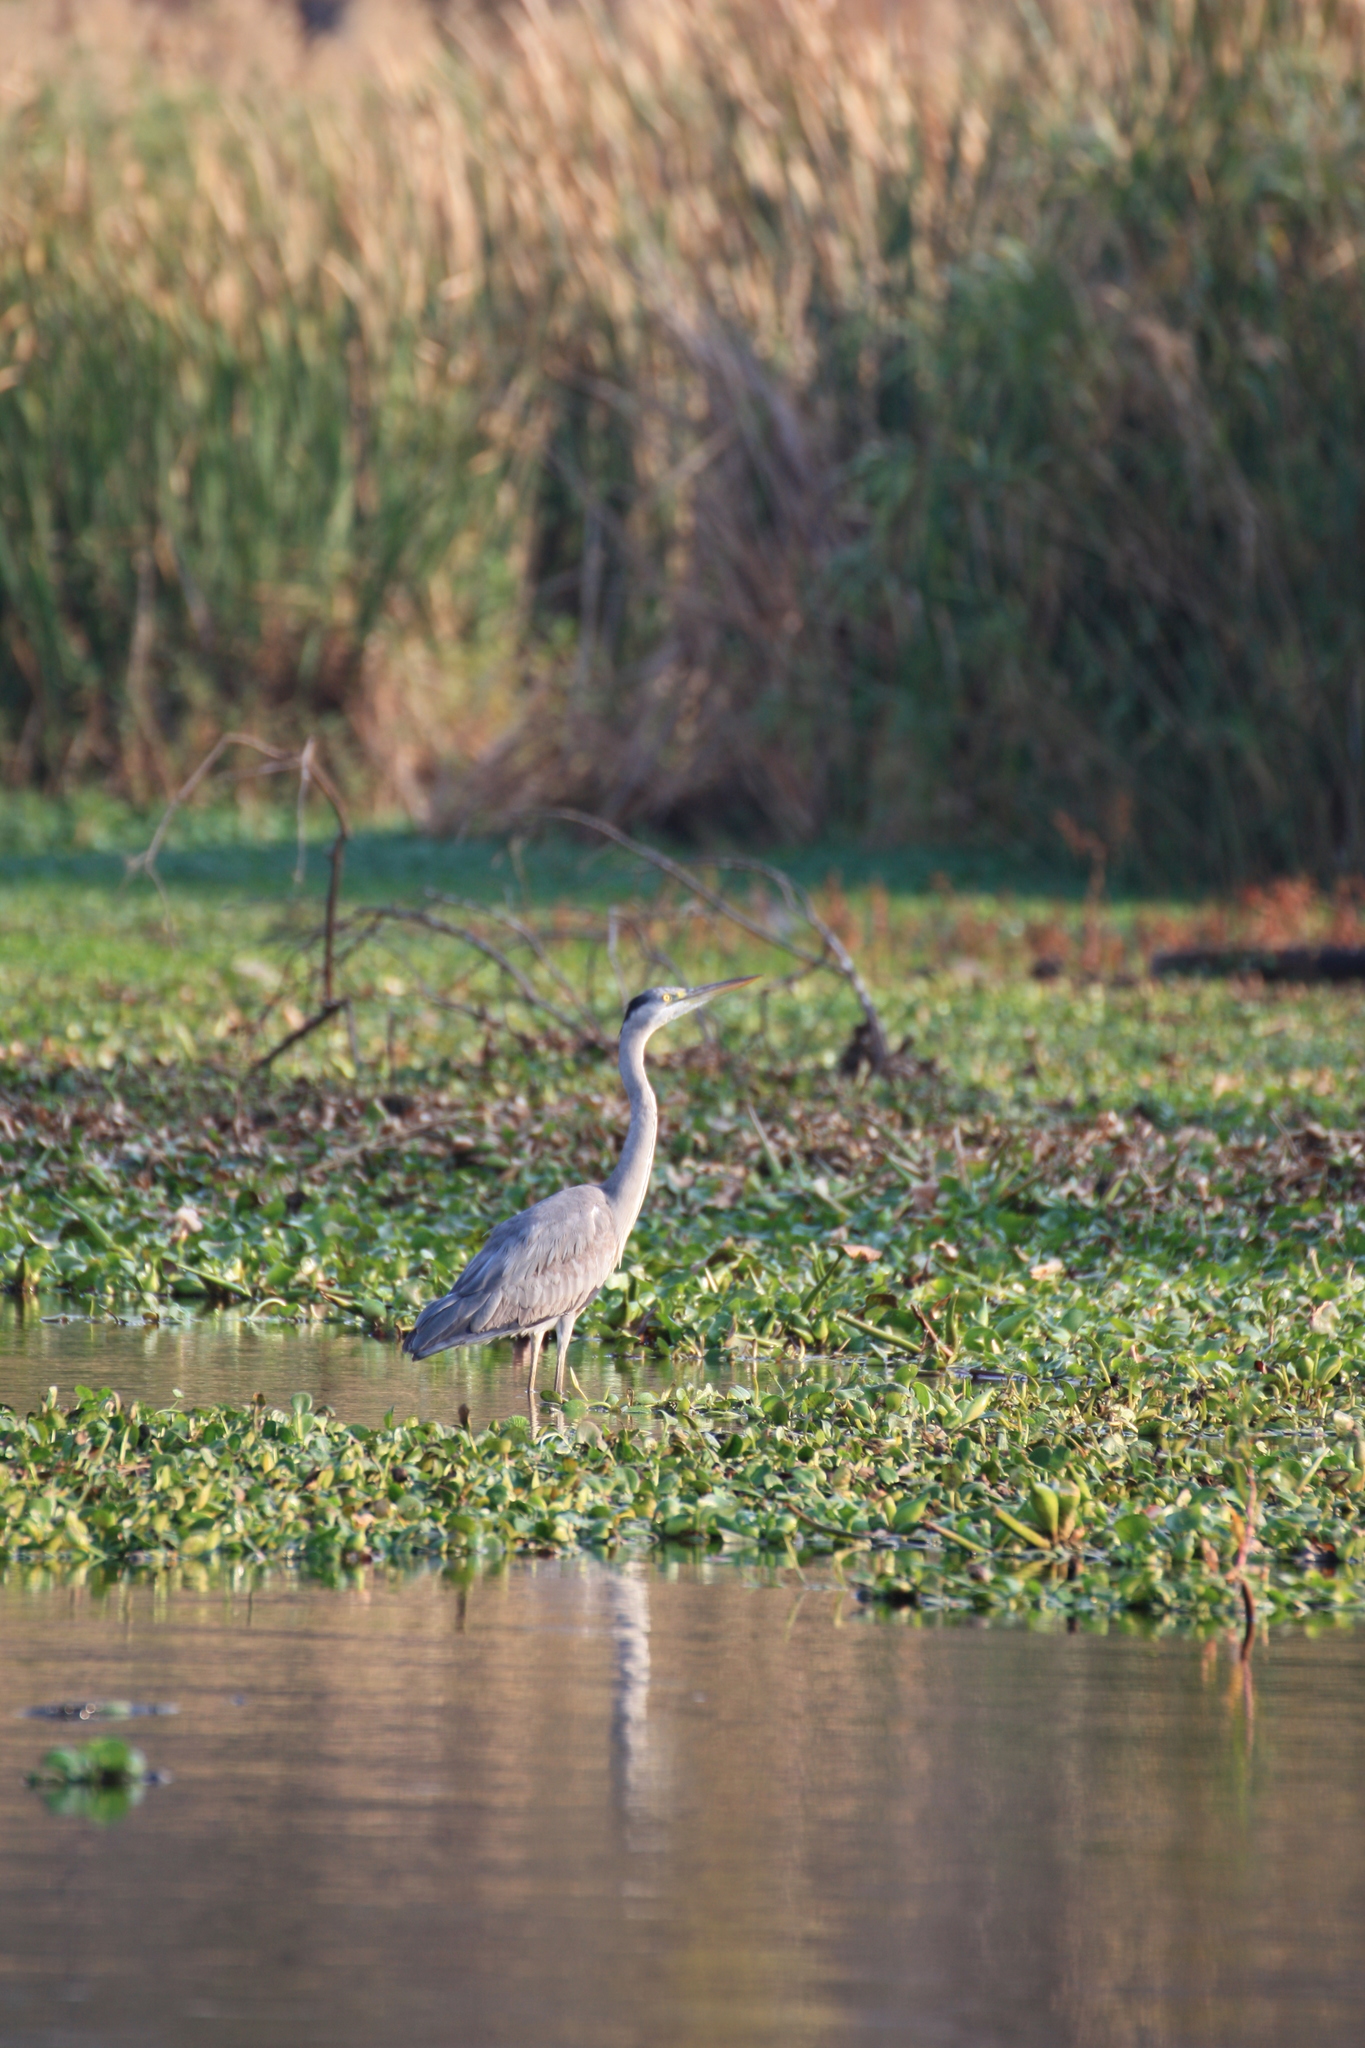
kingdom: Animalia
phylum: Chordata
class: Aves
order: Pelecaniformes
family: Ardeidae
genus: Ardea
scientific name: Ardea cinerea
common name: Grey heron
